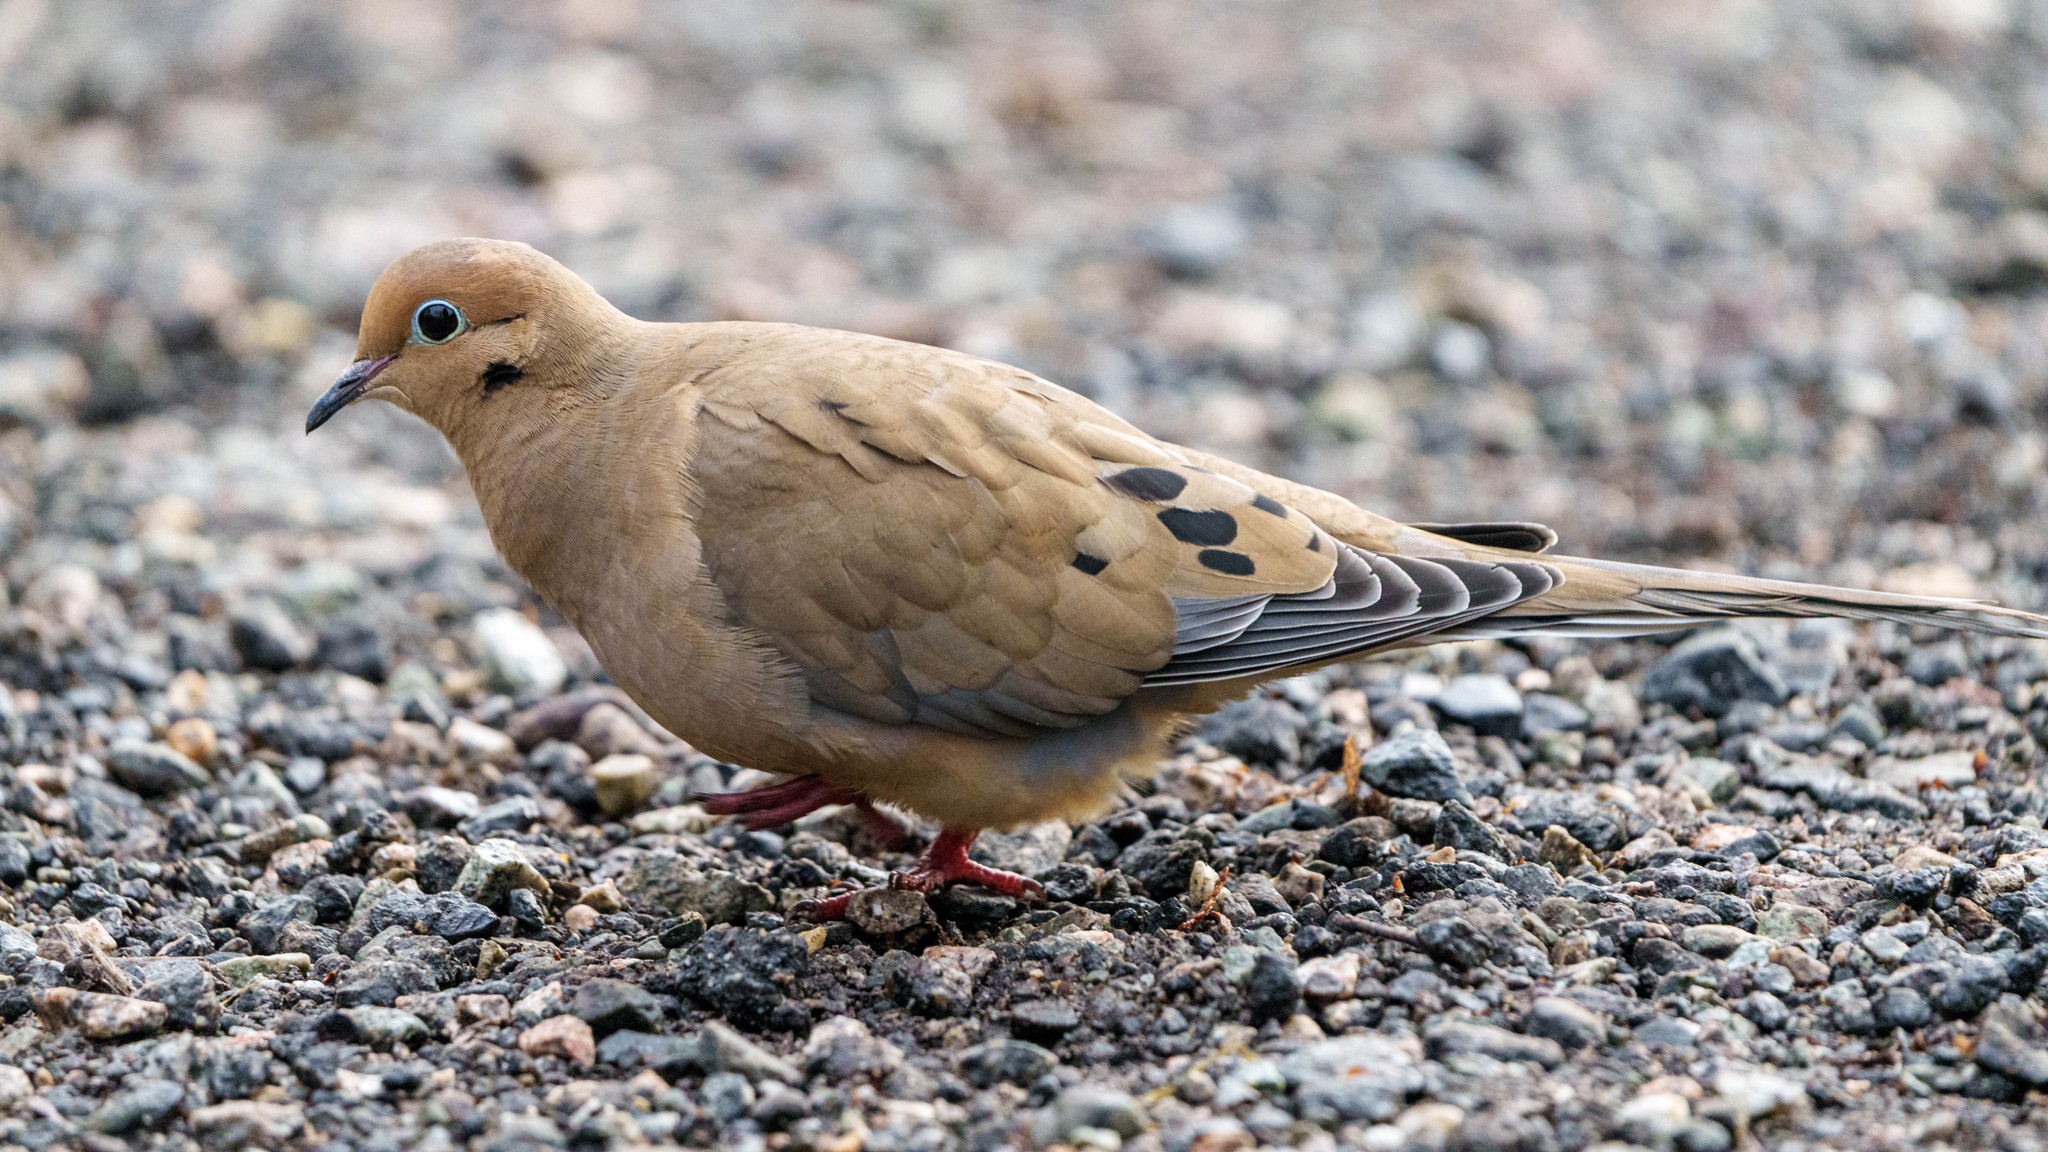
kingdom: Animalia
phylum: Chordata
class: Aves
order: Columbiformes
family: Columbidae
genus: Zenaida
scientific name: Zenaida macroura
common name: Mourning dove
